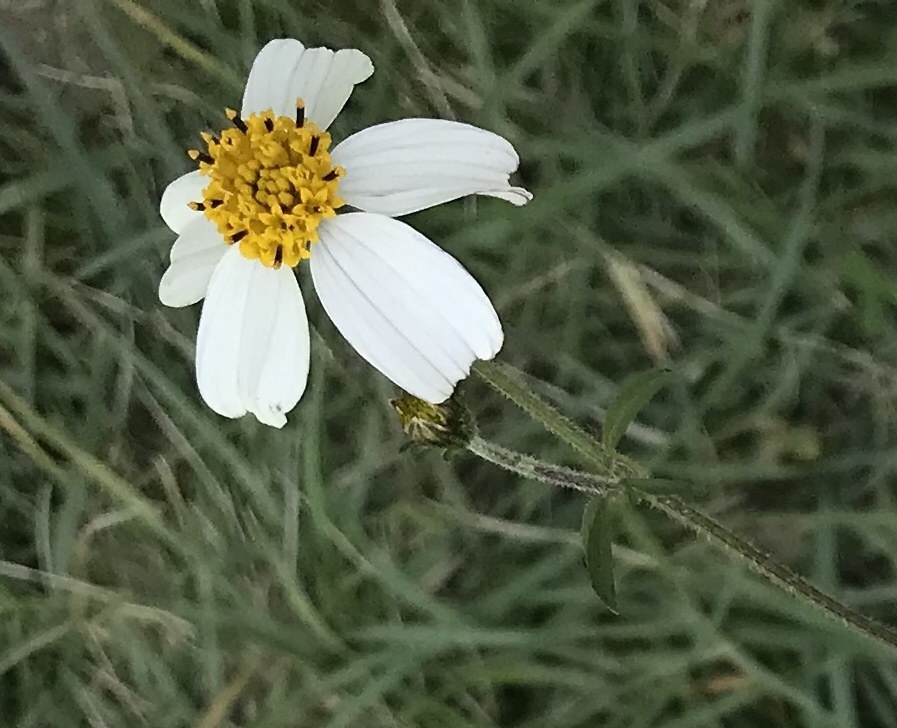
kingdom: Plantae
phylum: Tracheophyta
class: Magnoliopsida
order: Asterales
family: Asteraceae
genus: Bidens
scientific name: Bidens odorata
